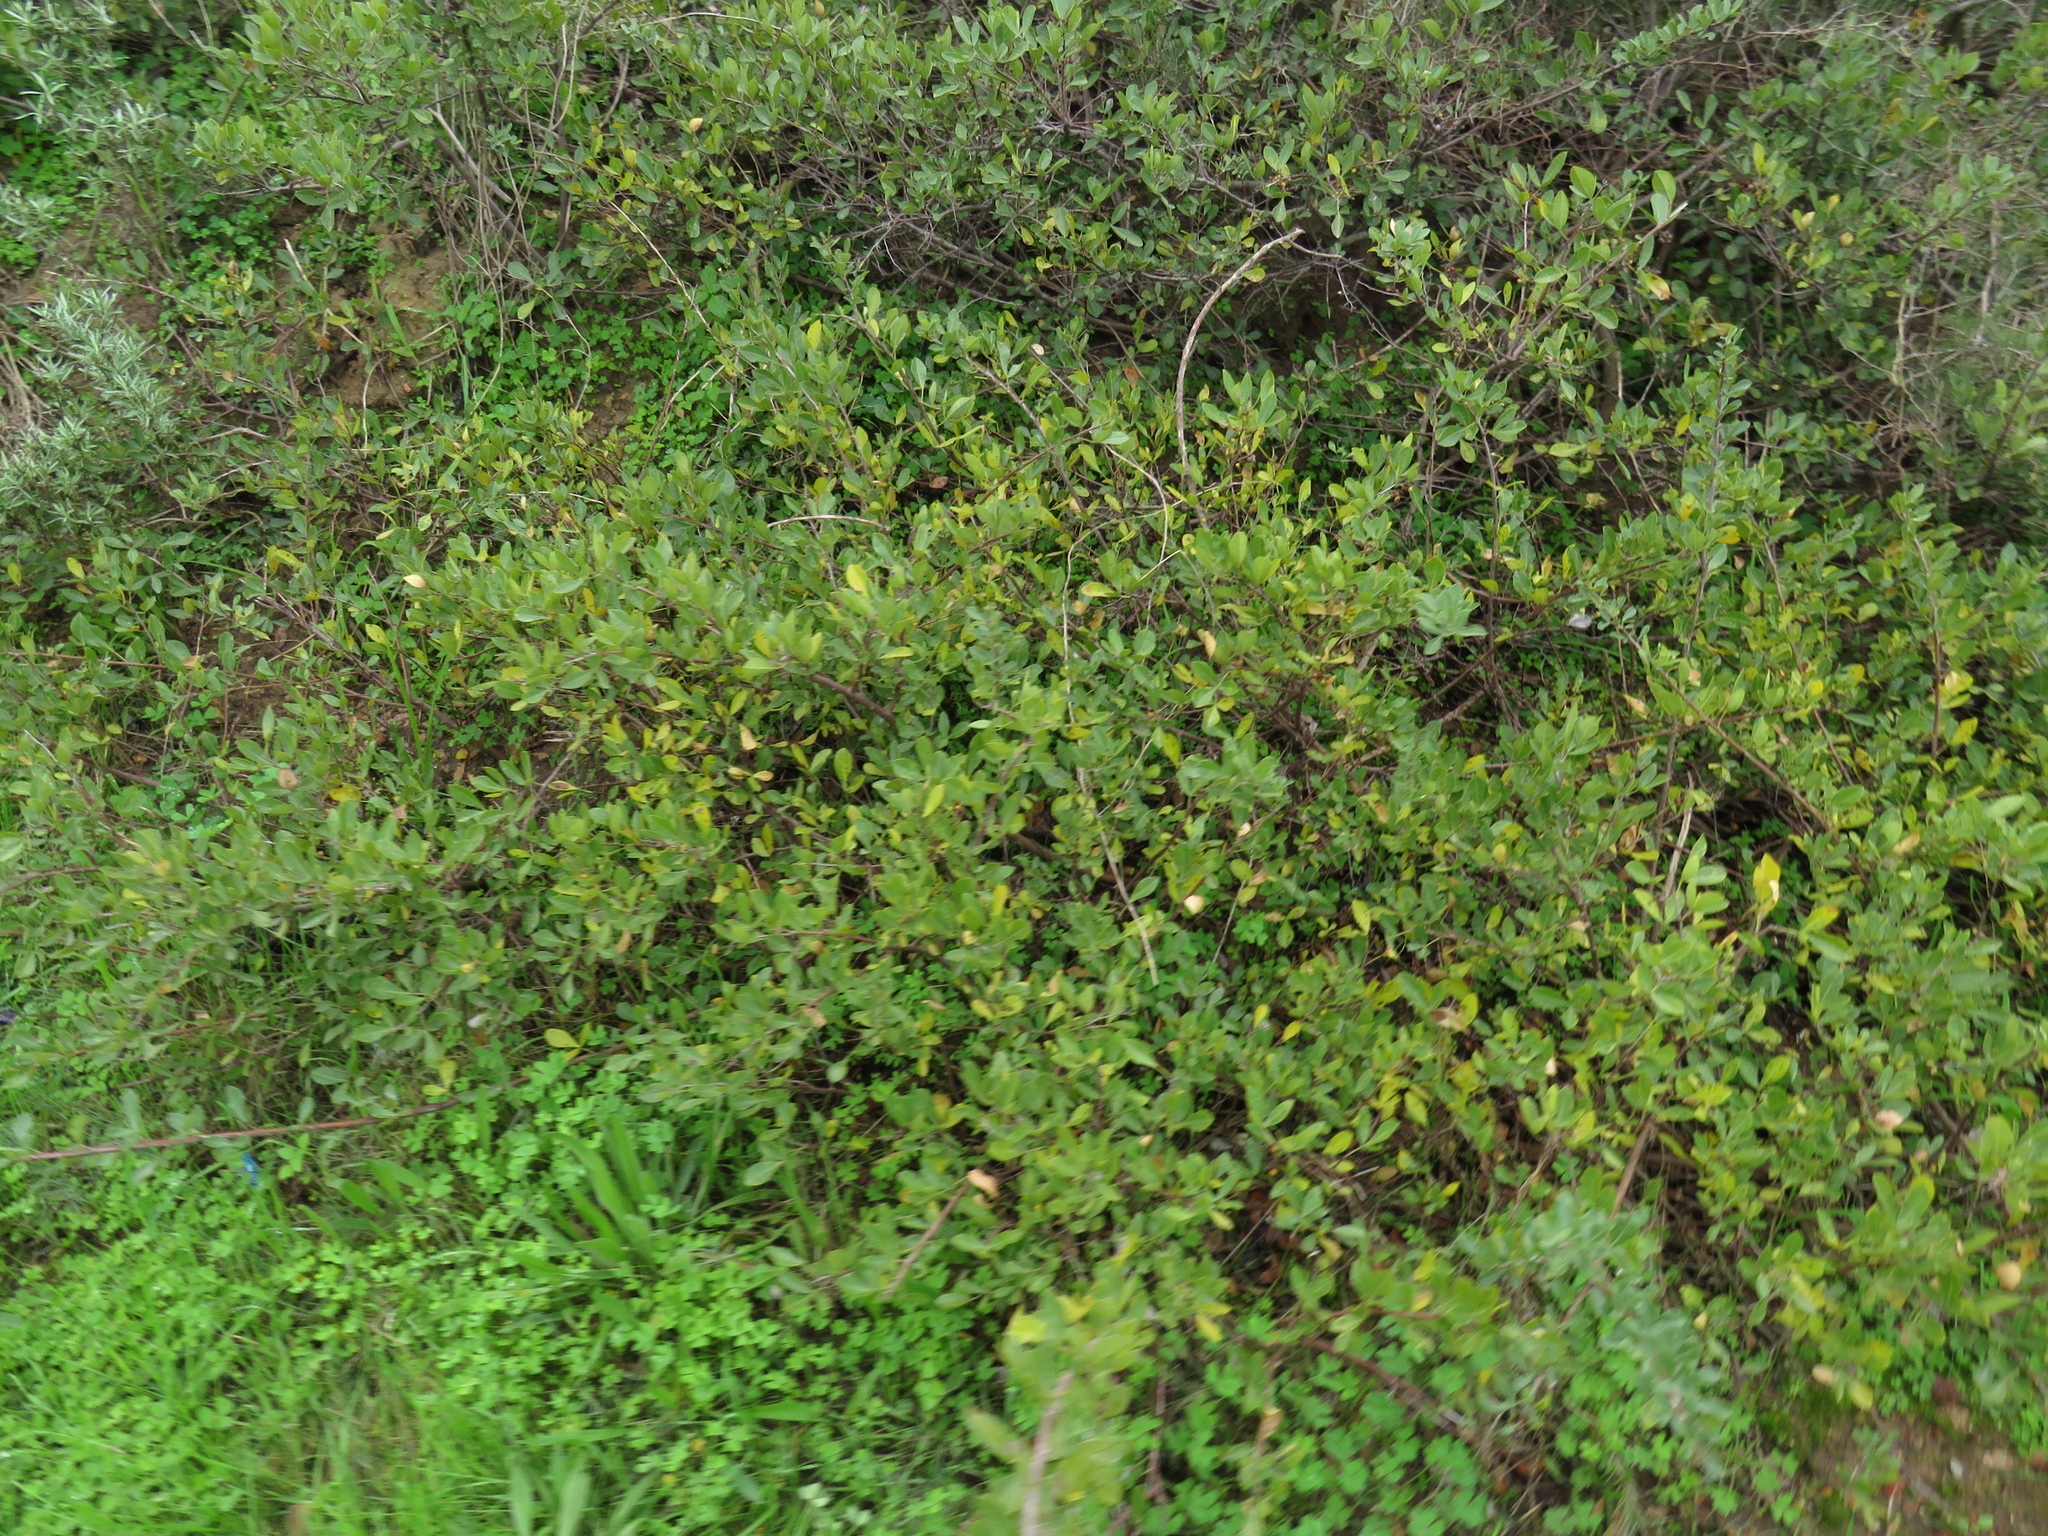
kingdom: Plantae
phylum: Tracheophyta
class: Magnoliopsida
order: Sapindales
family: Anacardiaceae
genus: Searsia
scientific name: Searsia laevigata
